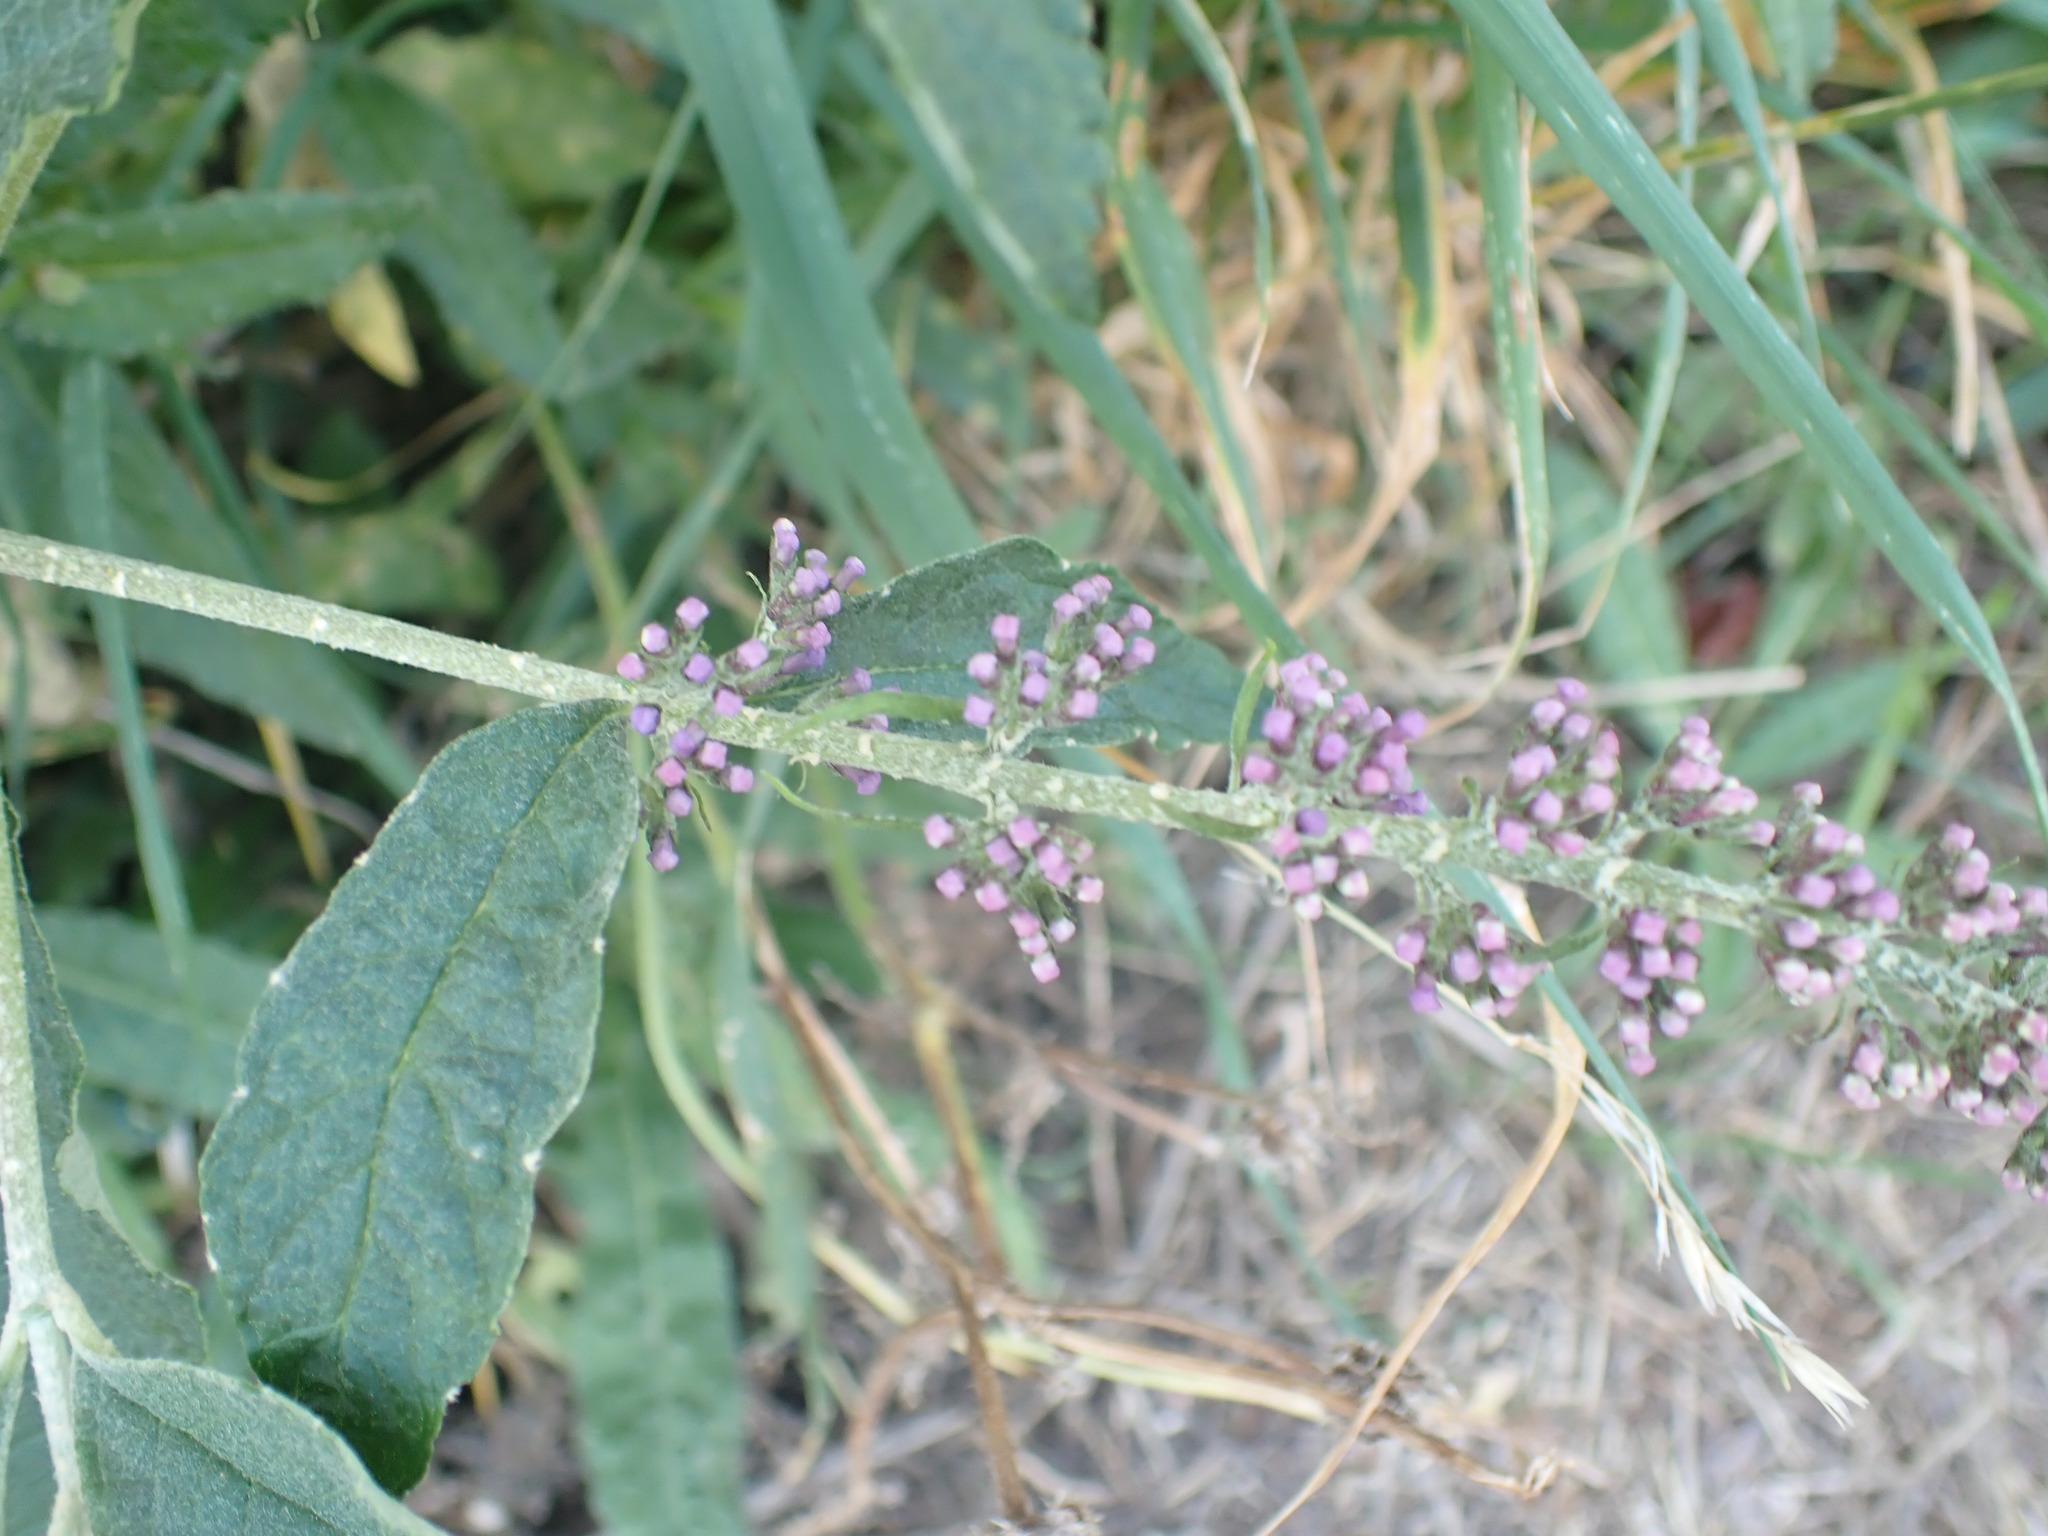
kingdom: Plantae
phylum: Tracheophyta
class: Magnoliopsida
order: Lamiales
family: Scrophulariaceae
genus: Buddleja
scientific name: Buddleja davidii
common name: Butterfly-bush
